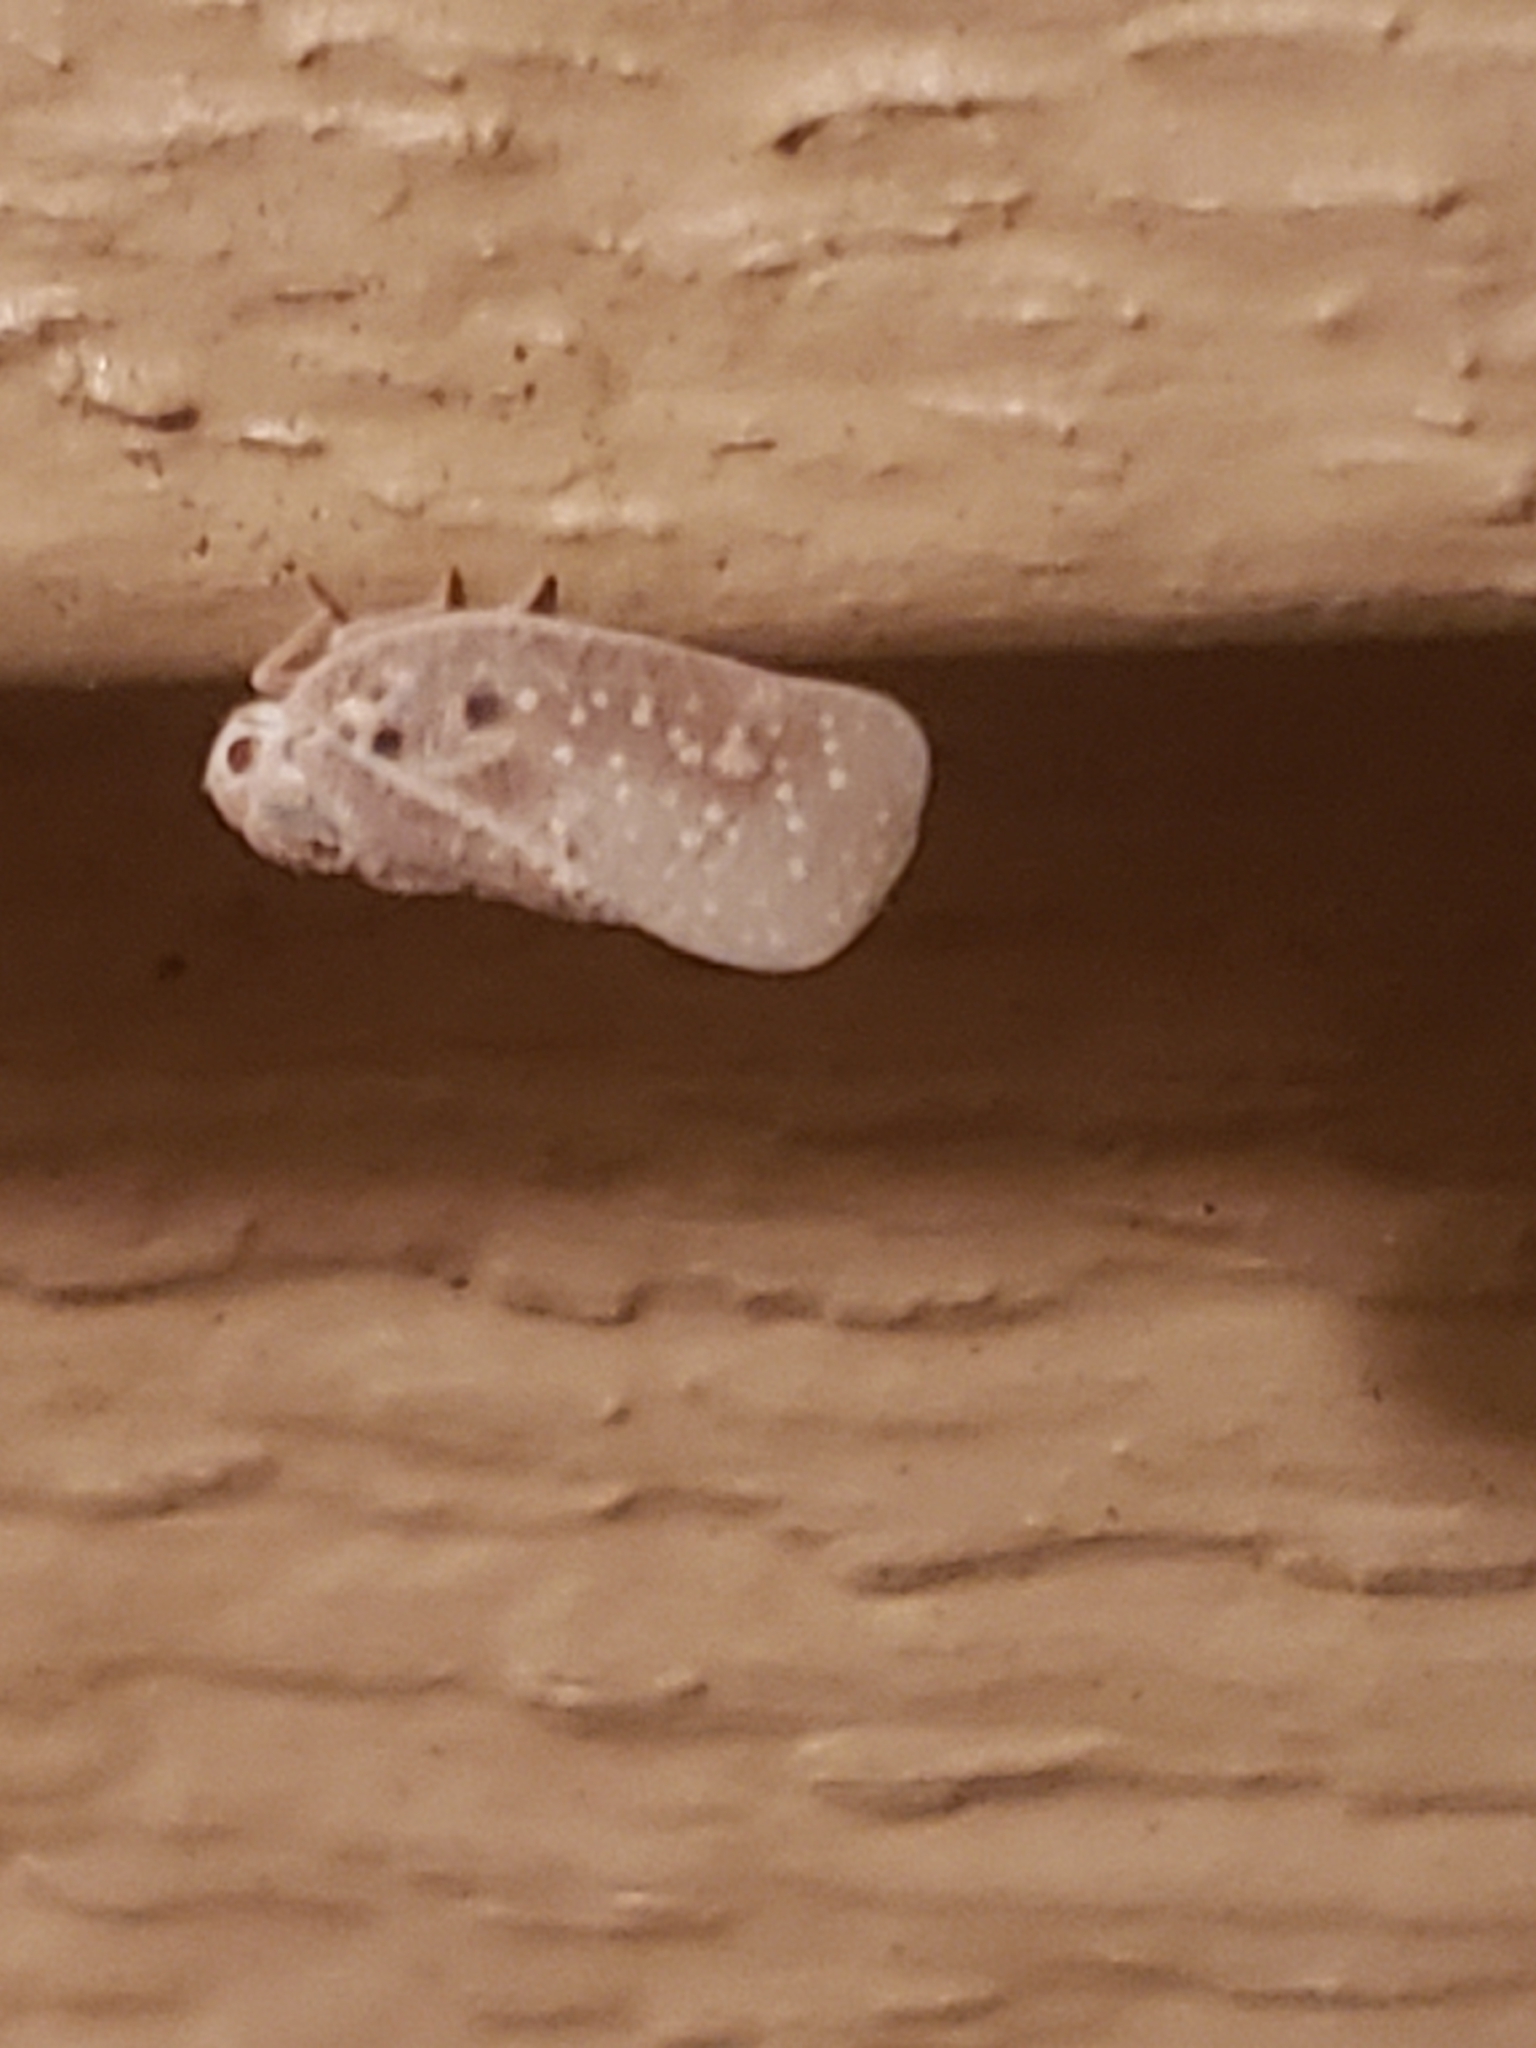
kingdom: Animalia
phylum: Arthropoda
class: Insecta
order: Hemiptera
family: Flatidae
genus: Metcalfa
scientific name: Metcalfa pruinosa
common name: Citrus flatid planthopper
